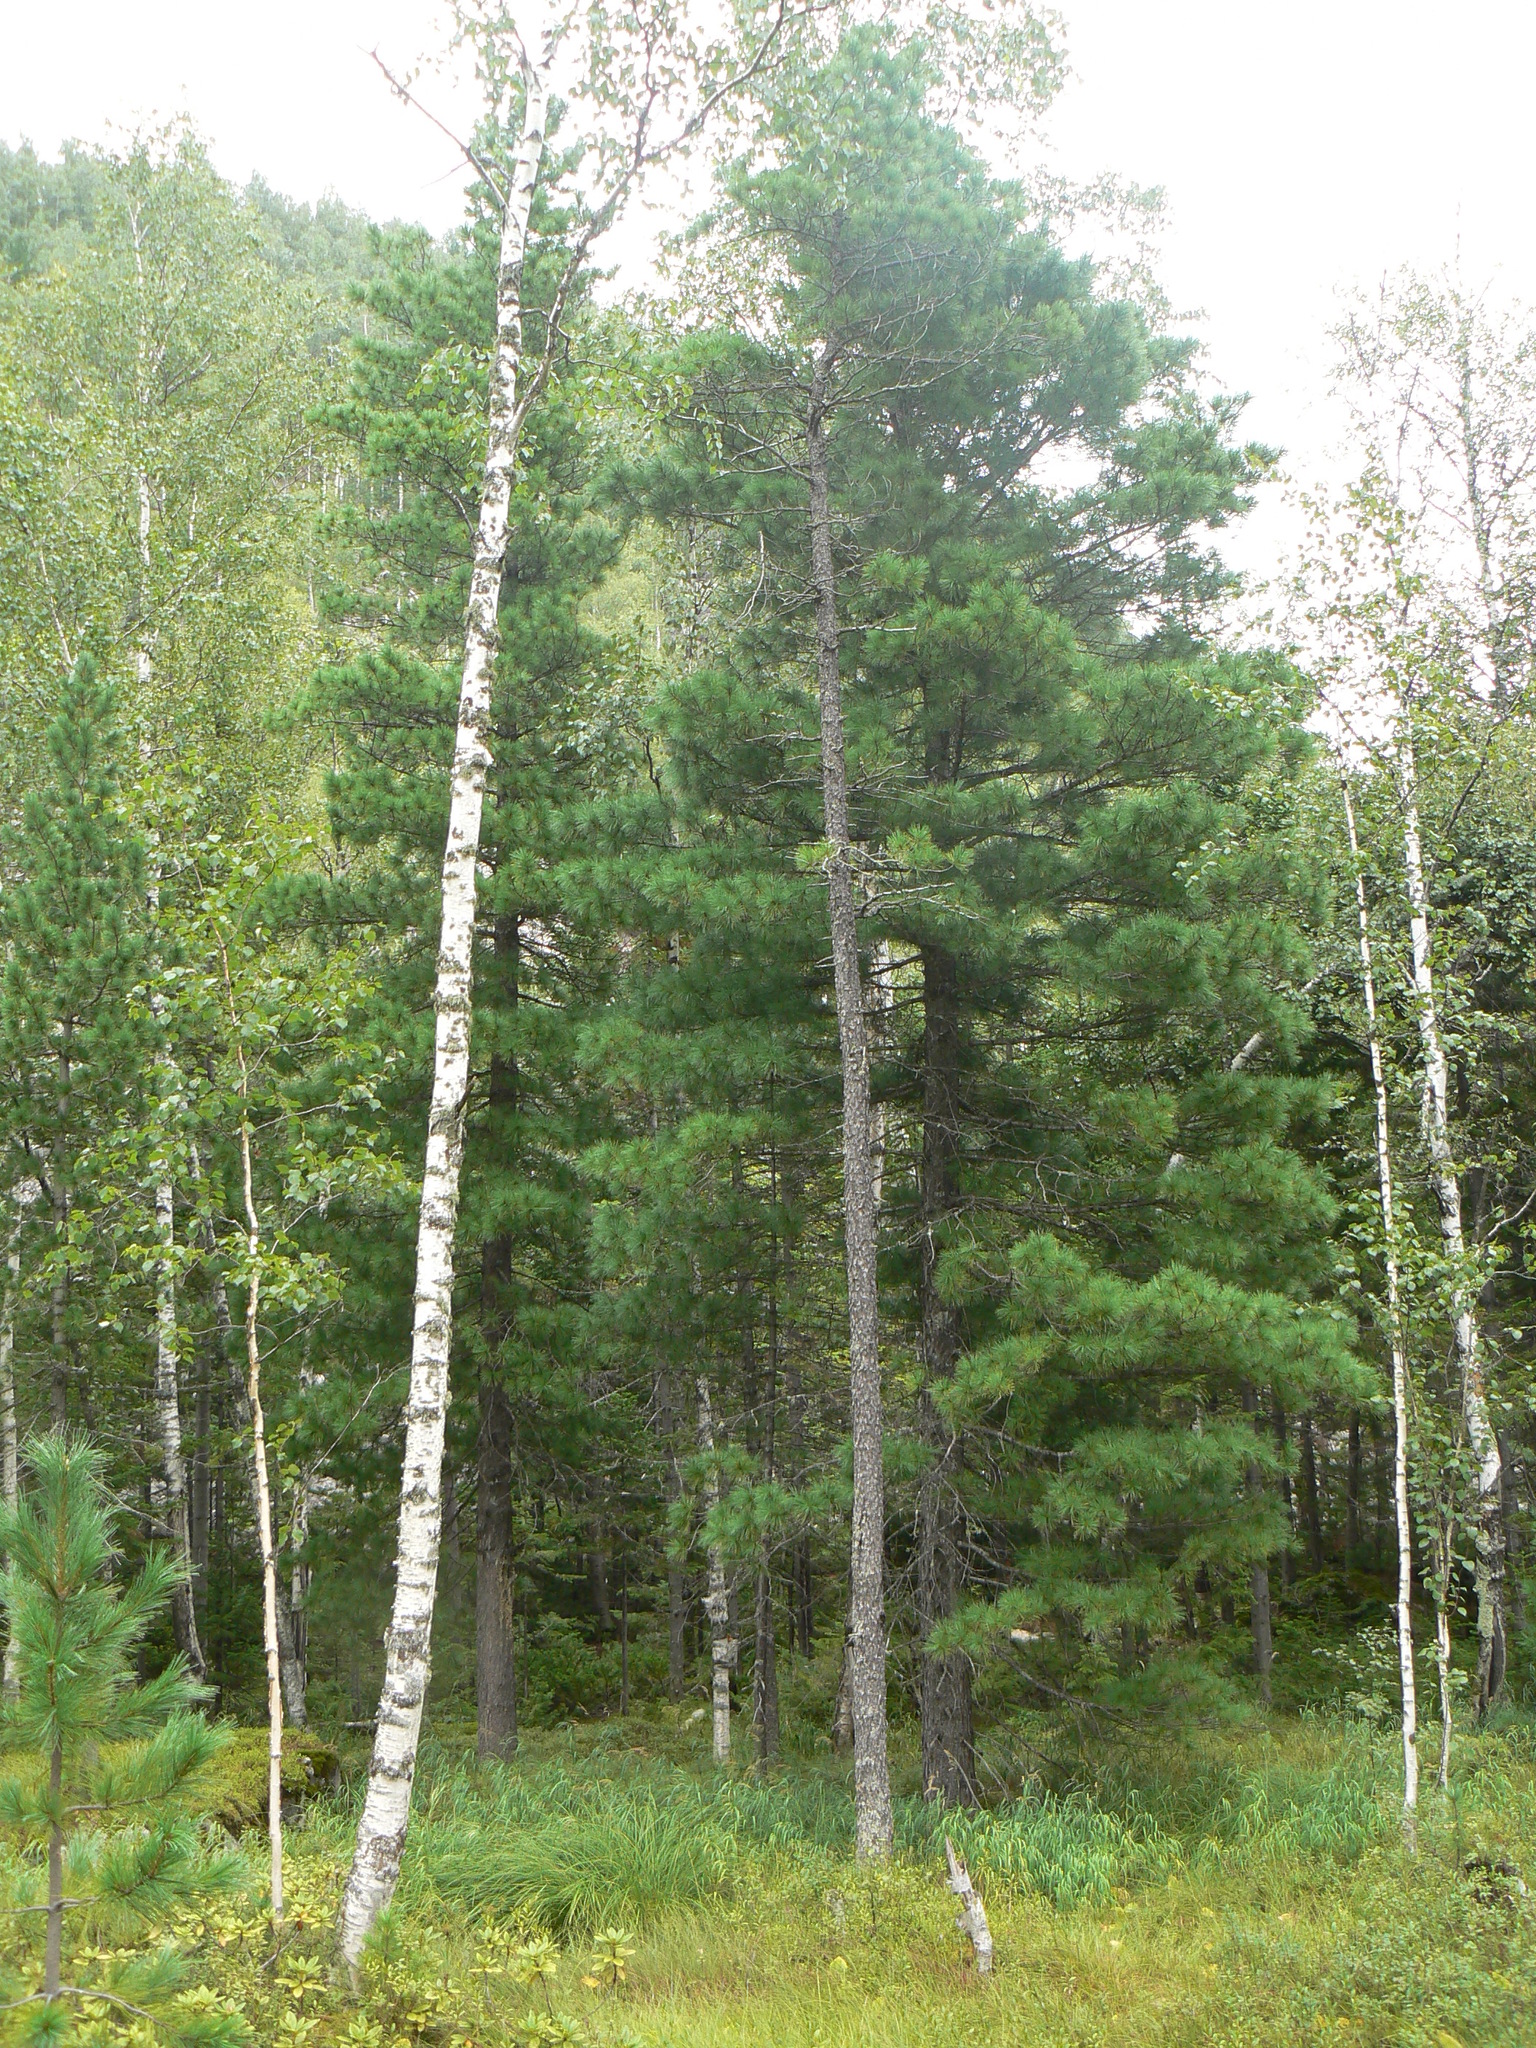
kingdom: Plantae
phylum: Tracheophyta
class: Pinopsida
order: Pinales
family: Pinaceae
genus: Pinus
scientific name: Pinus sibirica
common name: Siberian pine
